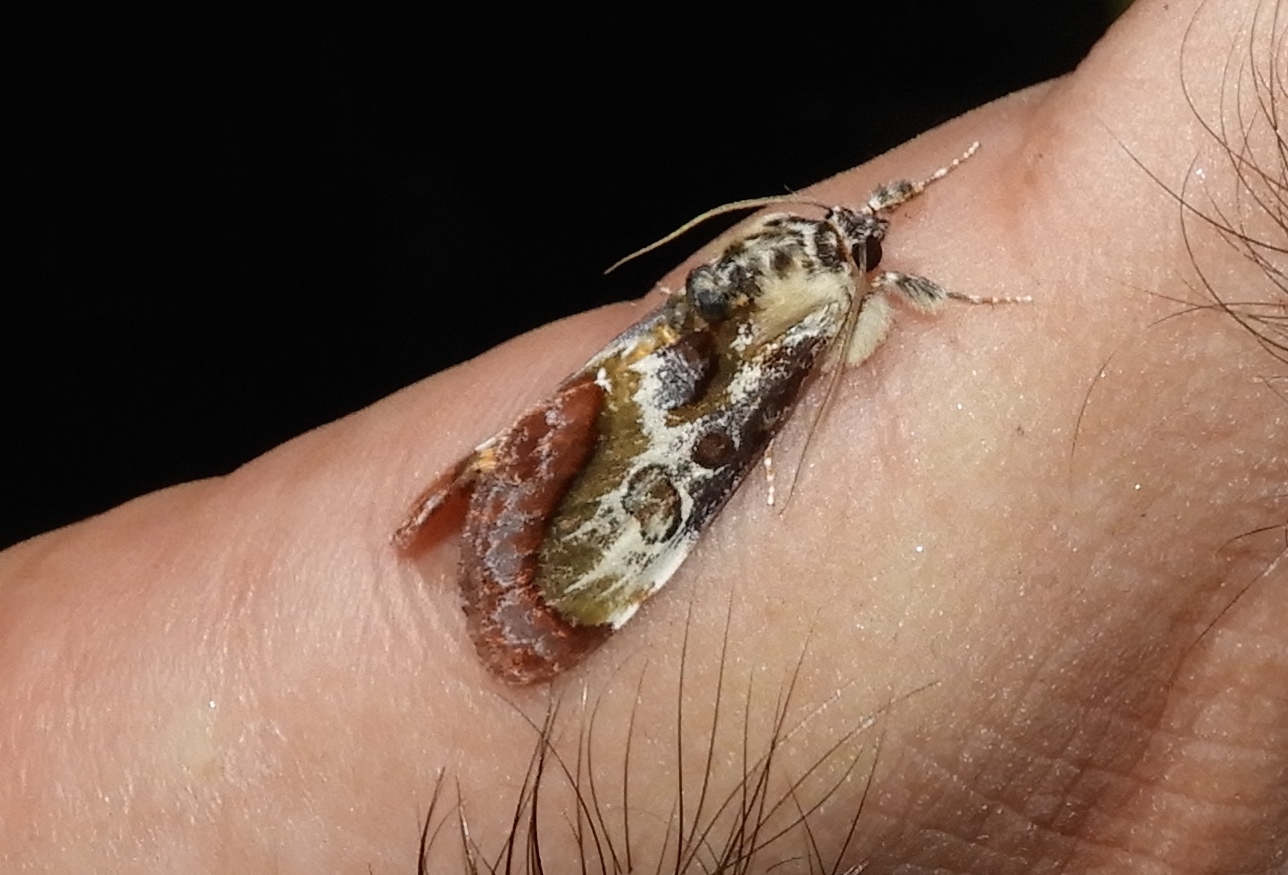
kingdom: Animalia
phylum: Arthropoda
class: Insecta
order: Lepidoptera
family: Noctuidae
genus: Epithisanotia
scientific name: Epithisanotia sanctijohannis
